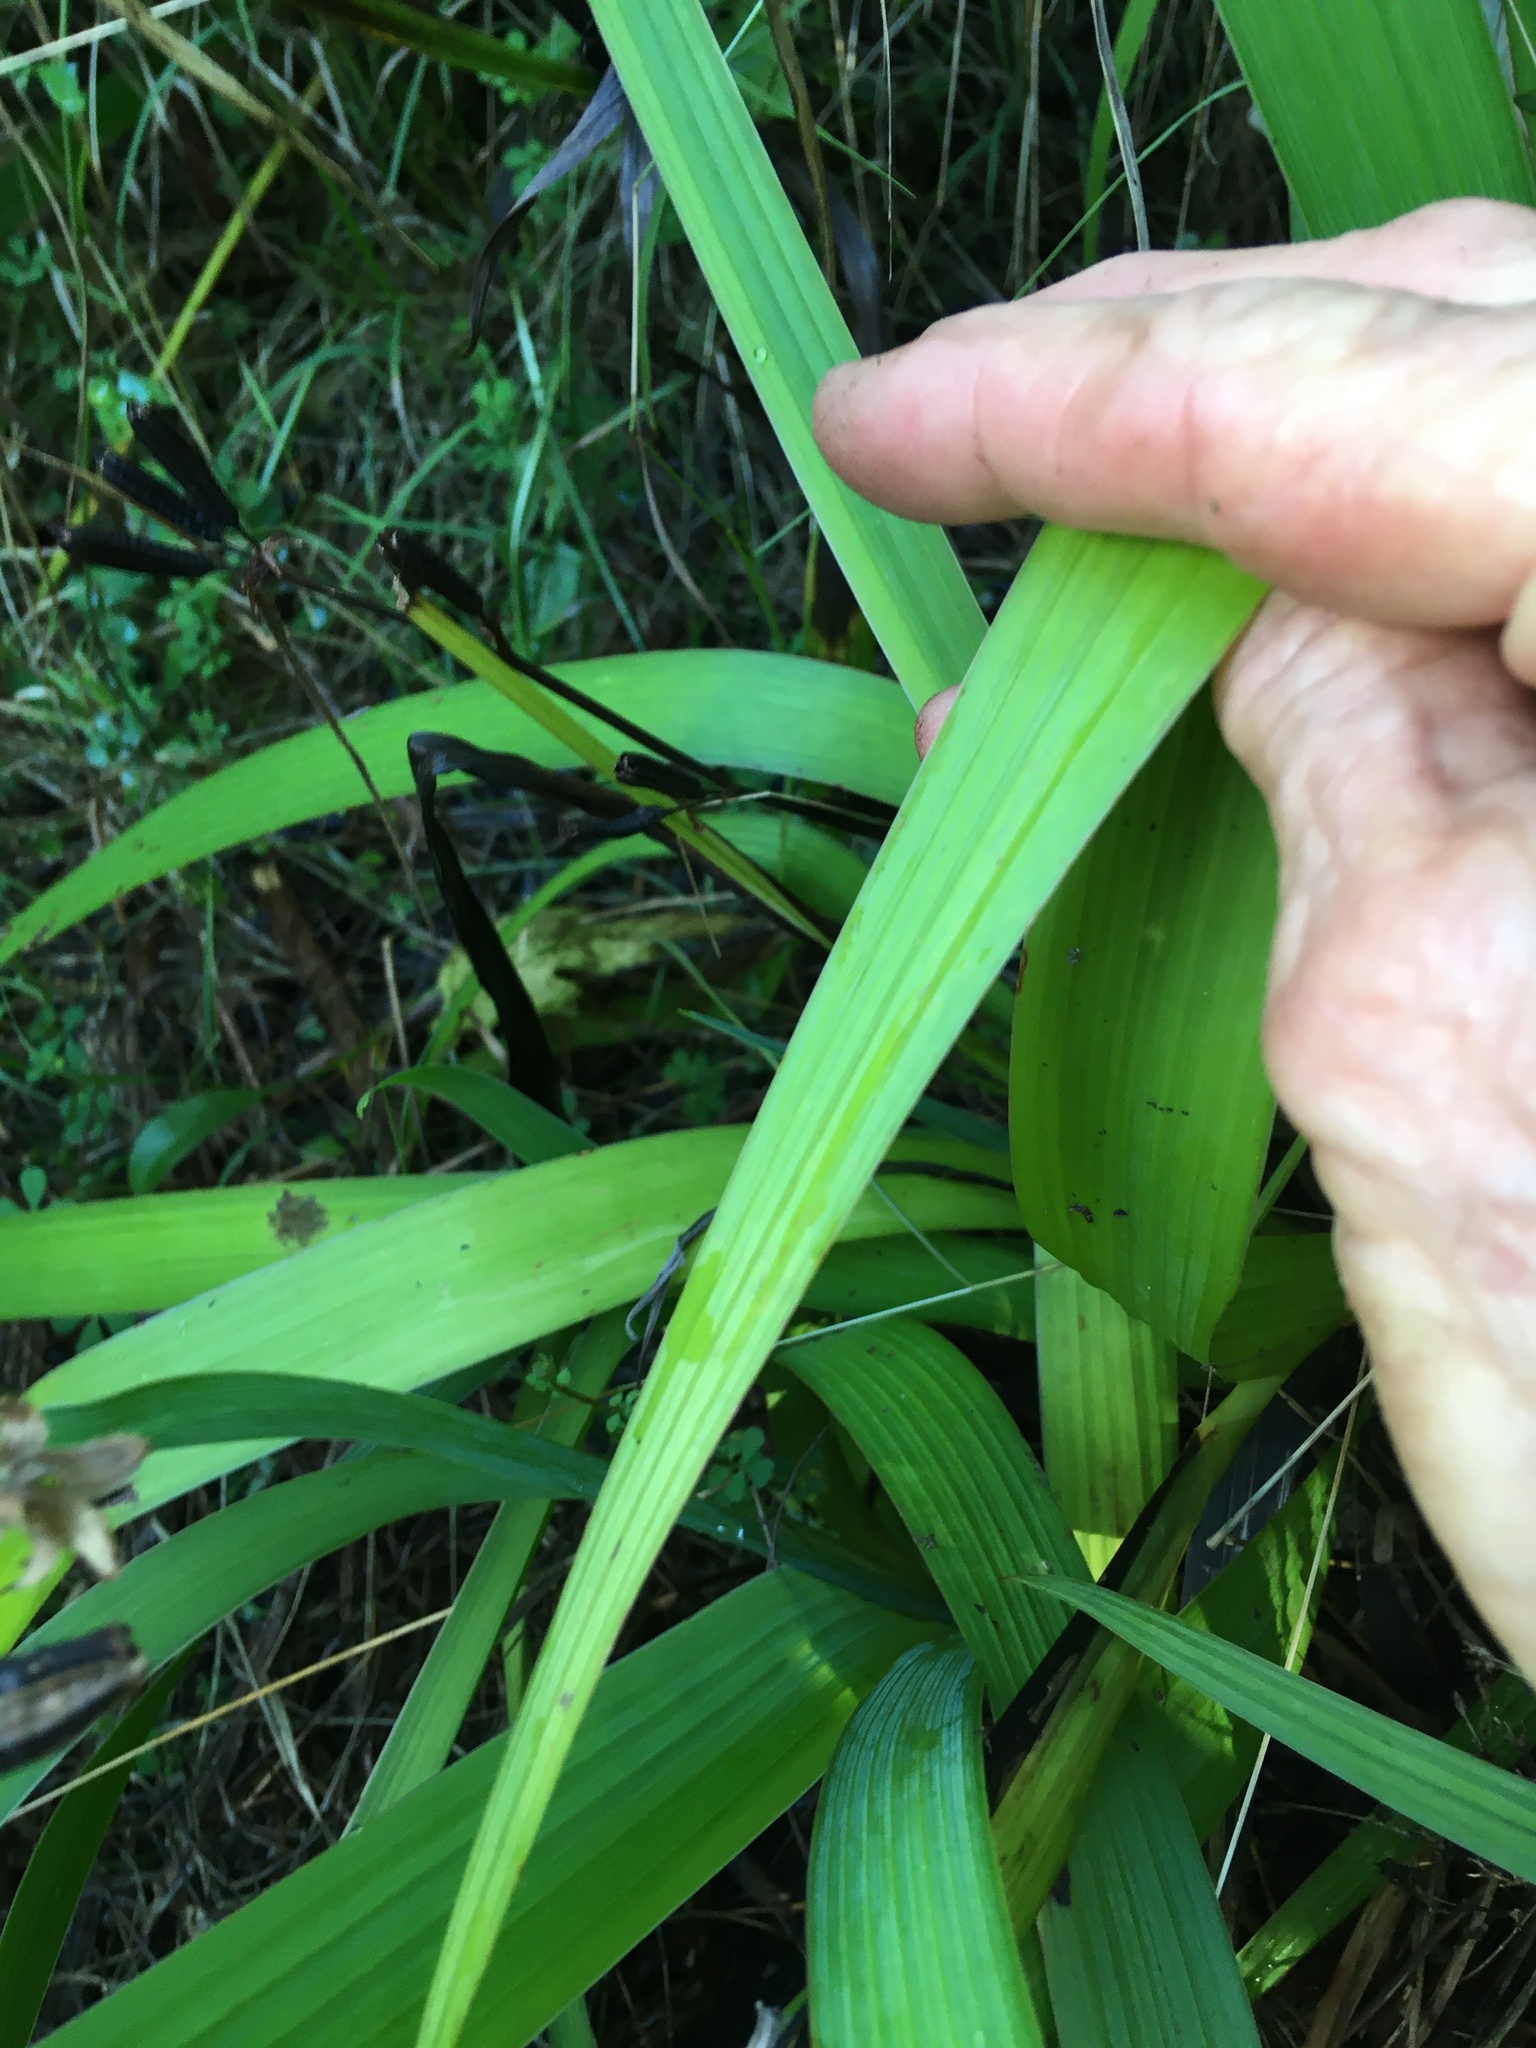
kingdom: Plantae
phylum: Tracheophyta
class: Liliopsida
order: Asparagales
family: Iridaceae
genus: Aristea
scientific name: Aristea ecklonii
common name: Blue corn-lily
